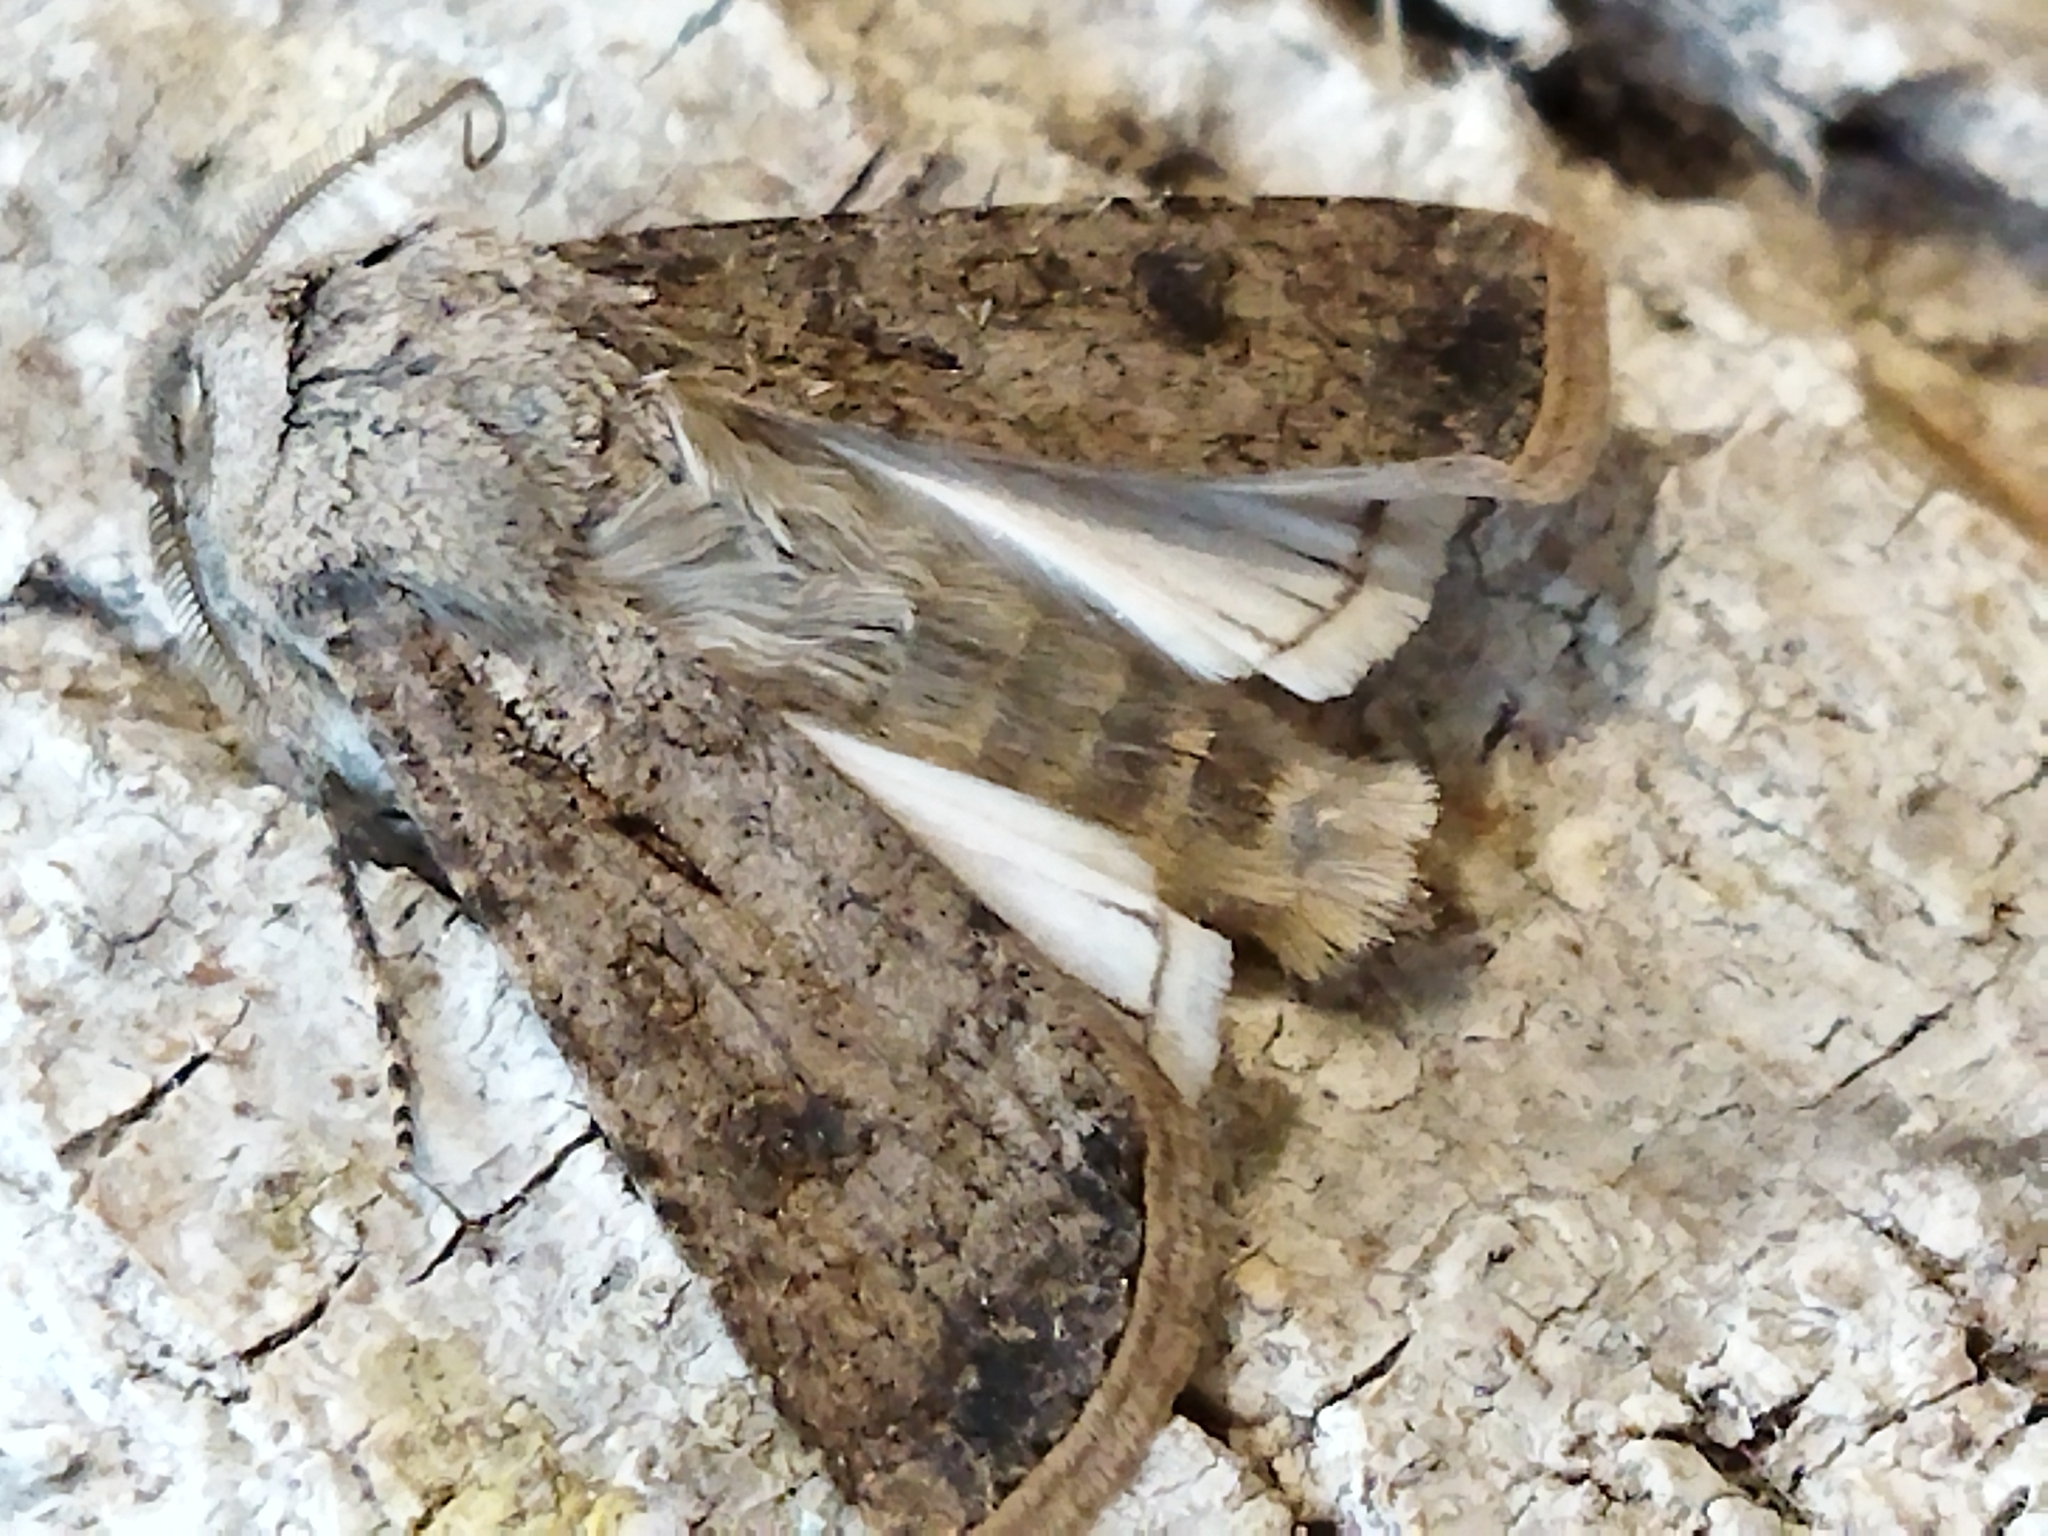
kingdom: Animalia
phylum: Arthropoda
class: Insecta
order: Lepidoptera
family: Noctuidae
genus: Agrotis
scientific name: Agrotis segetum
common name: Turnip moth
